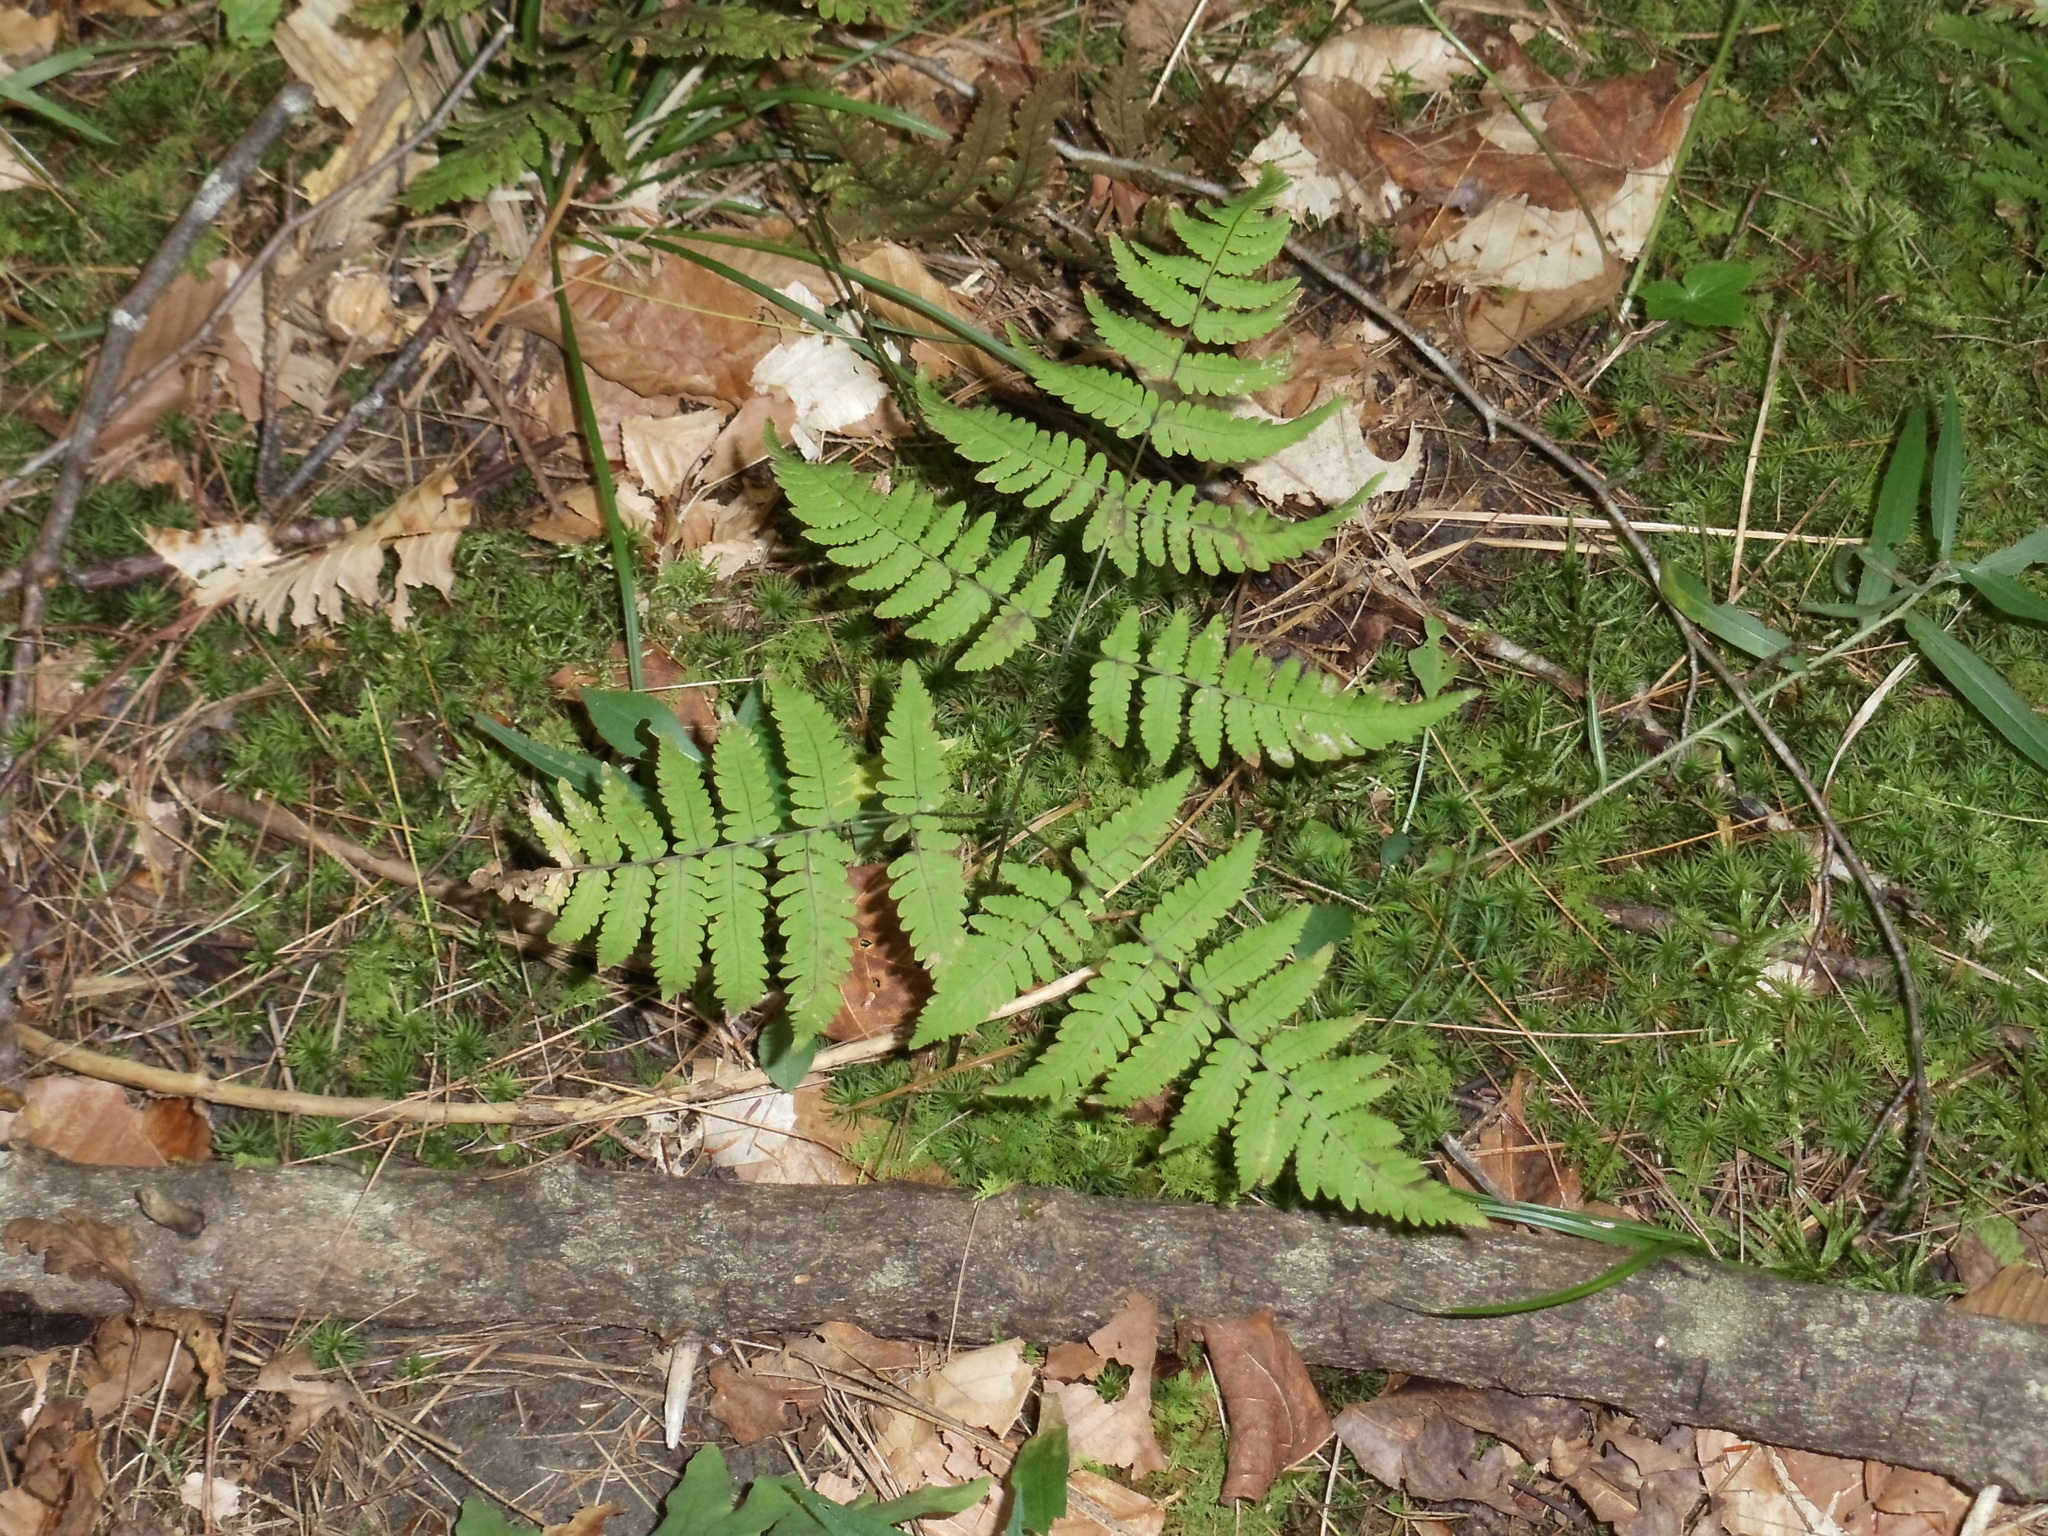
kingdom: Plantae
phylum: Tracheophyta
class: Polypodiopsida
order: Polypodiales
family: Cystopteridaceae
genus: Gymnocarpium
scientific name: Gymnocarpium dryopteris
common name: Oak fern
